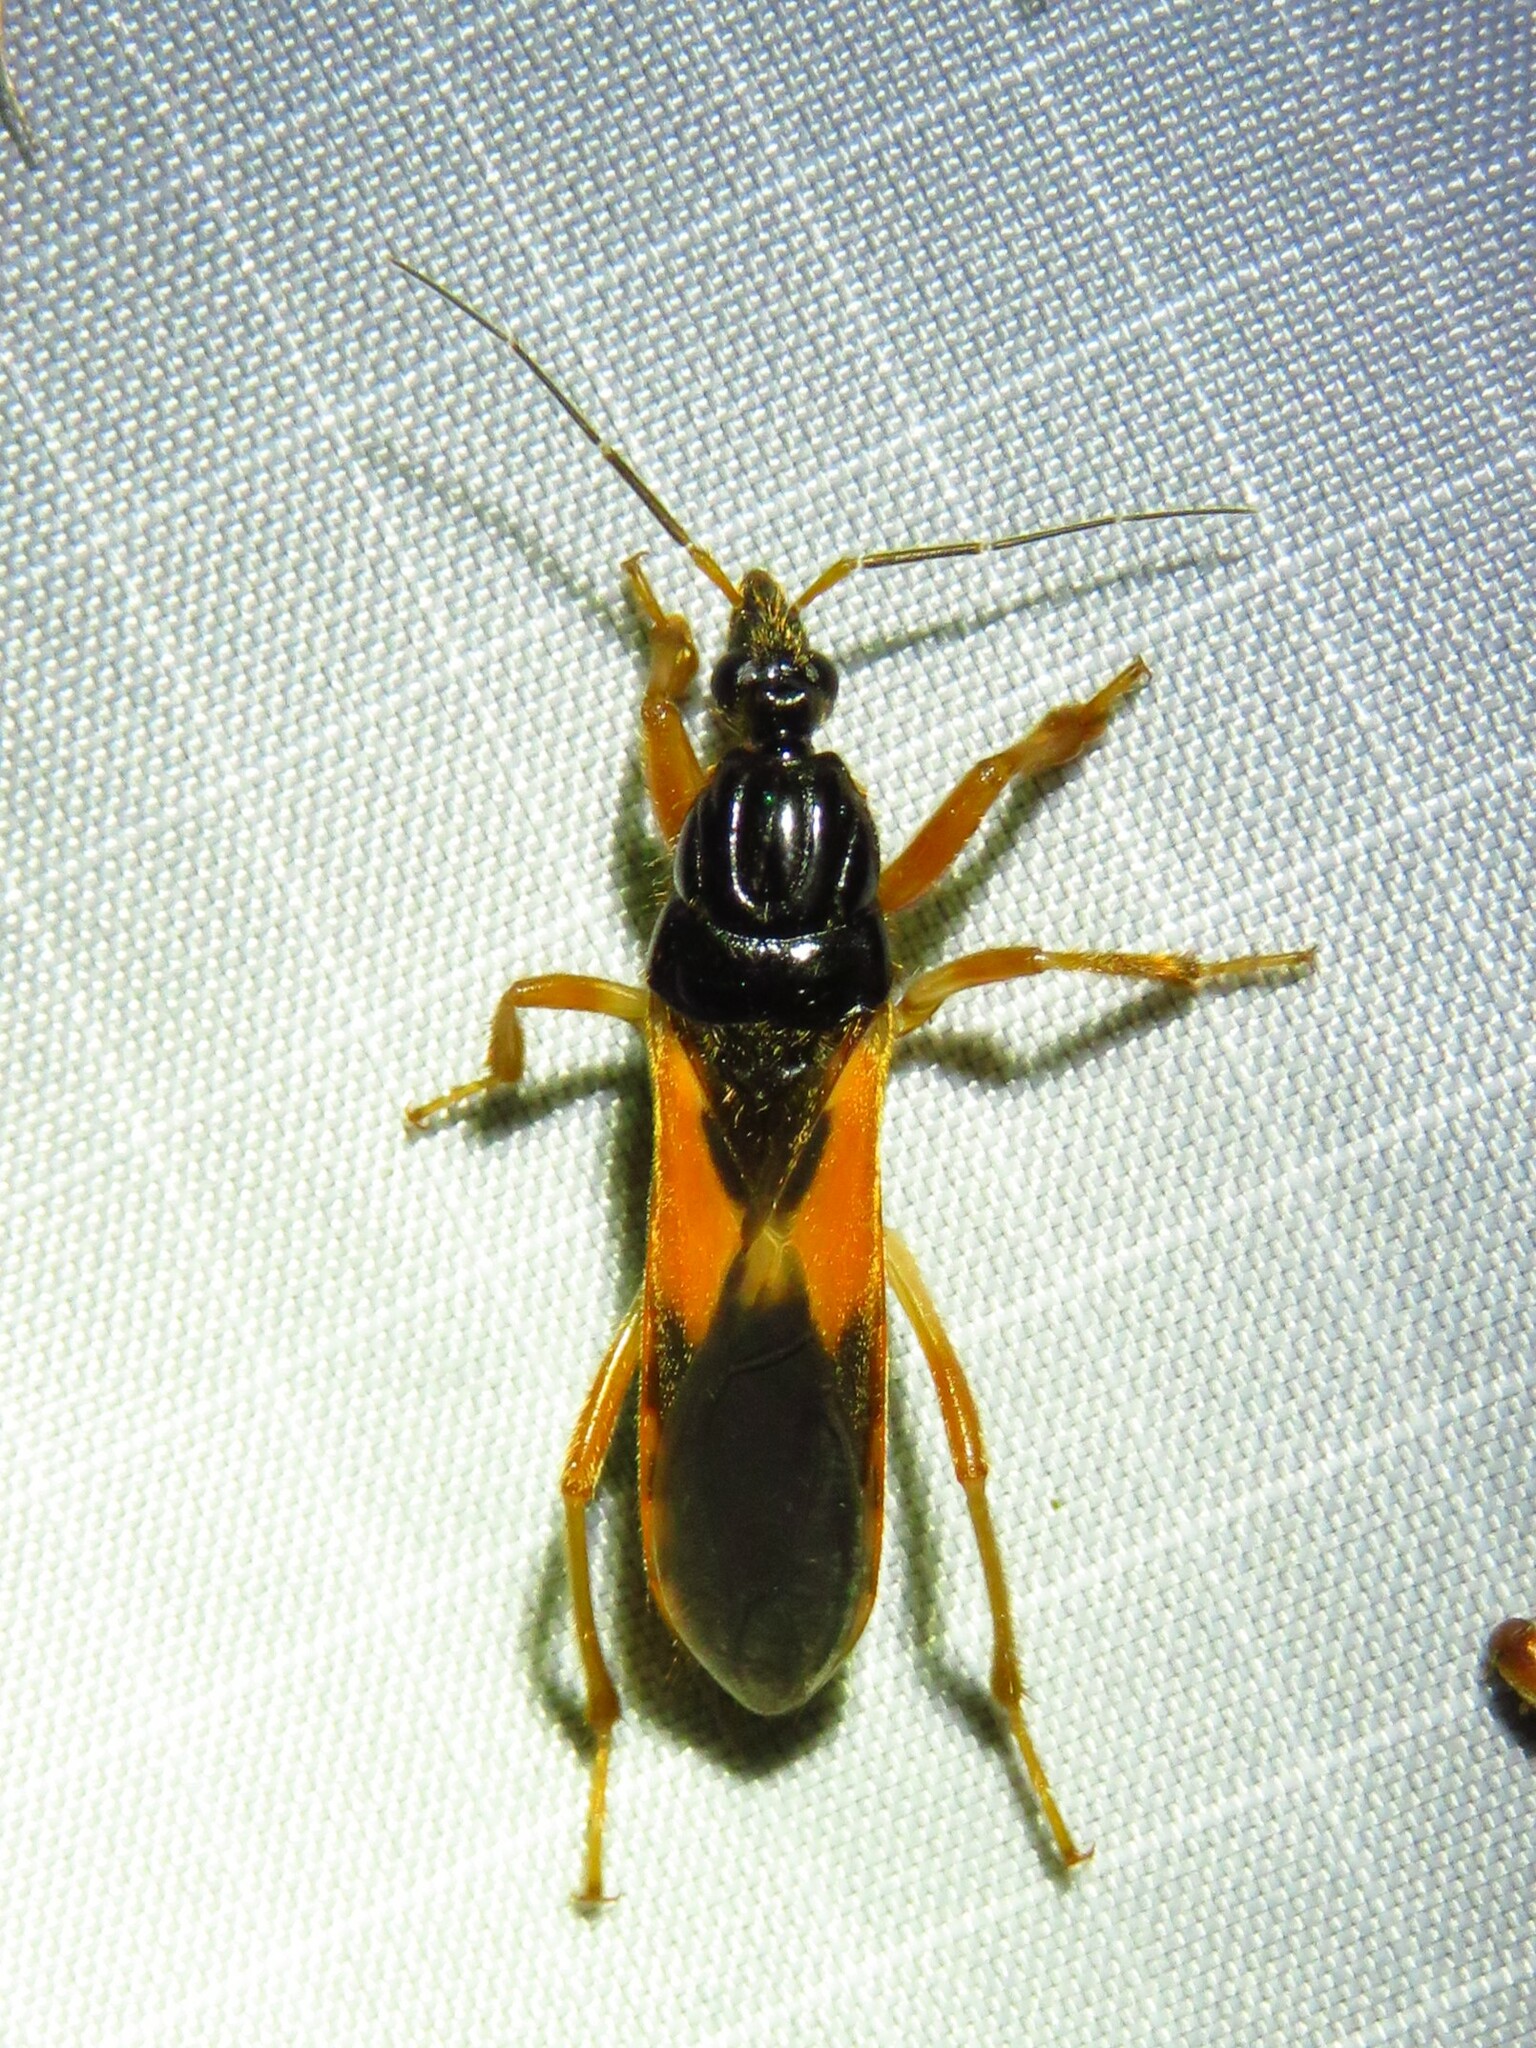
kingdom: Animalia
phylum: Arthropoda
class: Insecta
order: Hemiptera
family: Reduviidae
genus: Sirthenea
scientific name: Sirthenea stria
